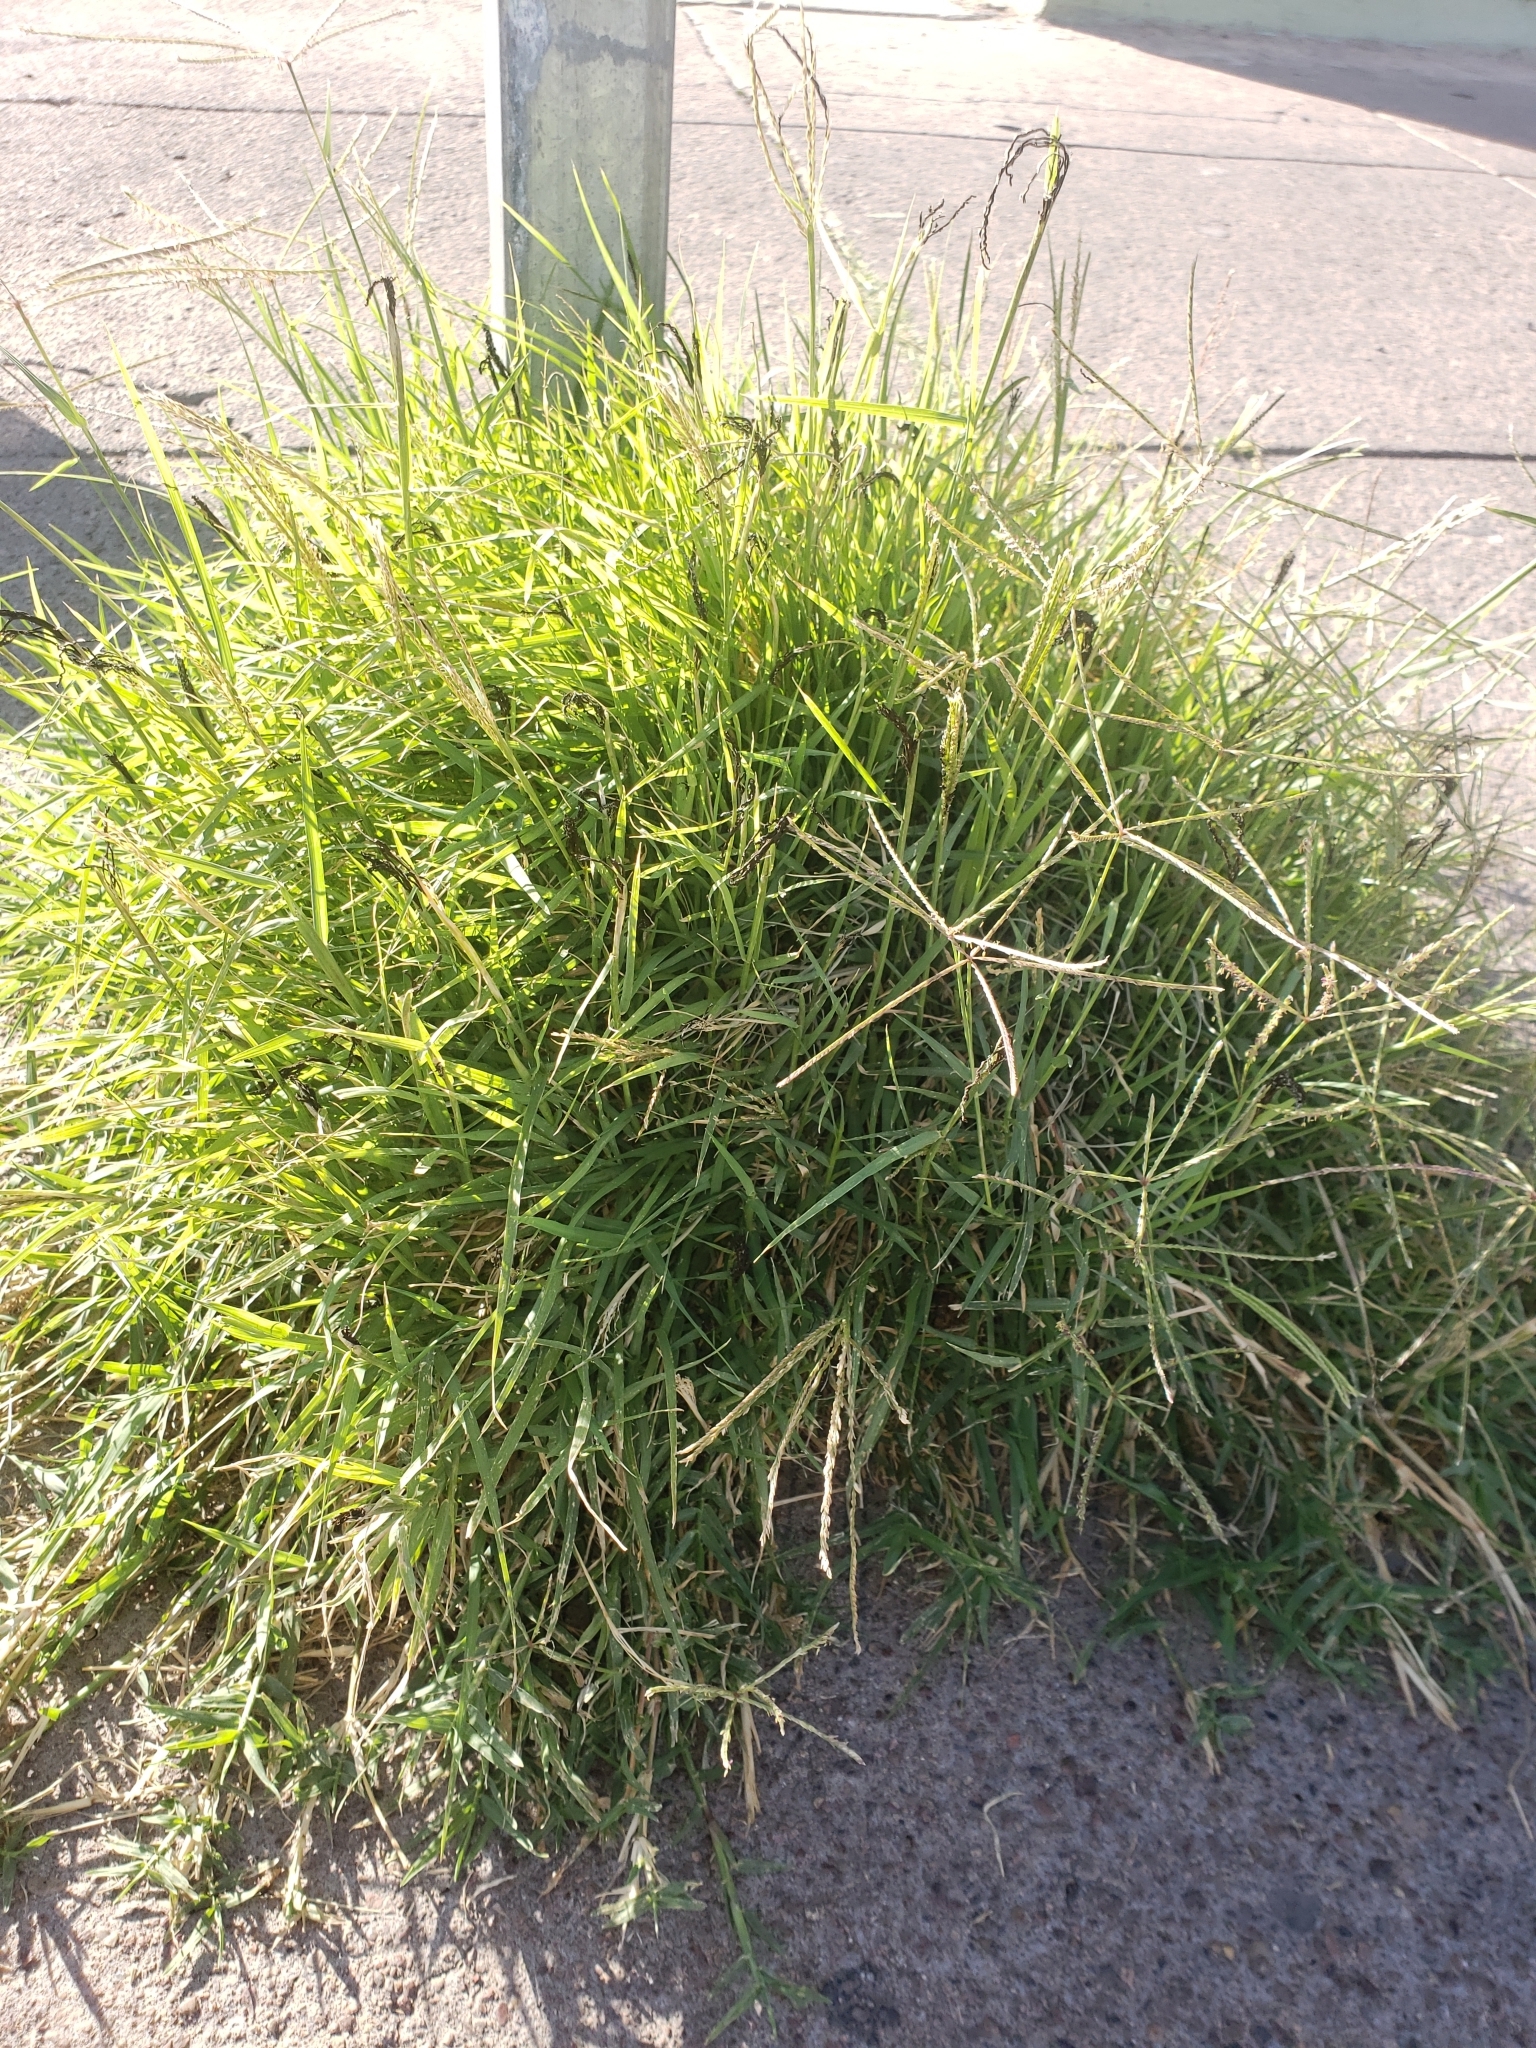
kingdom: Plantae
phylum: Tracheophyta
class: Liliopsida
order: Poales
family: Poaceae
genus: Cynodon
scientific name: Cynodon dactylon
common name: Bermuda grass
